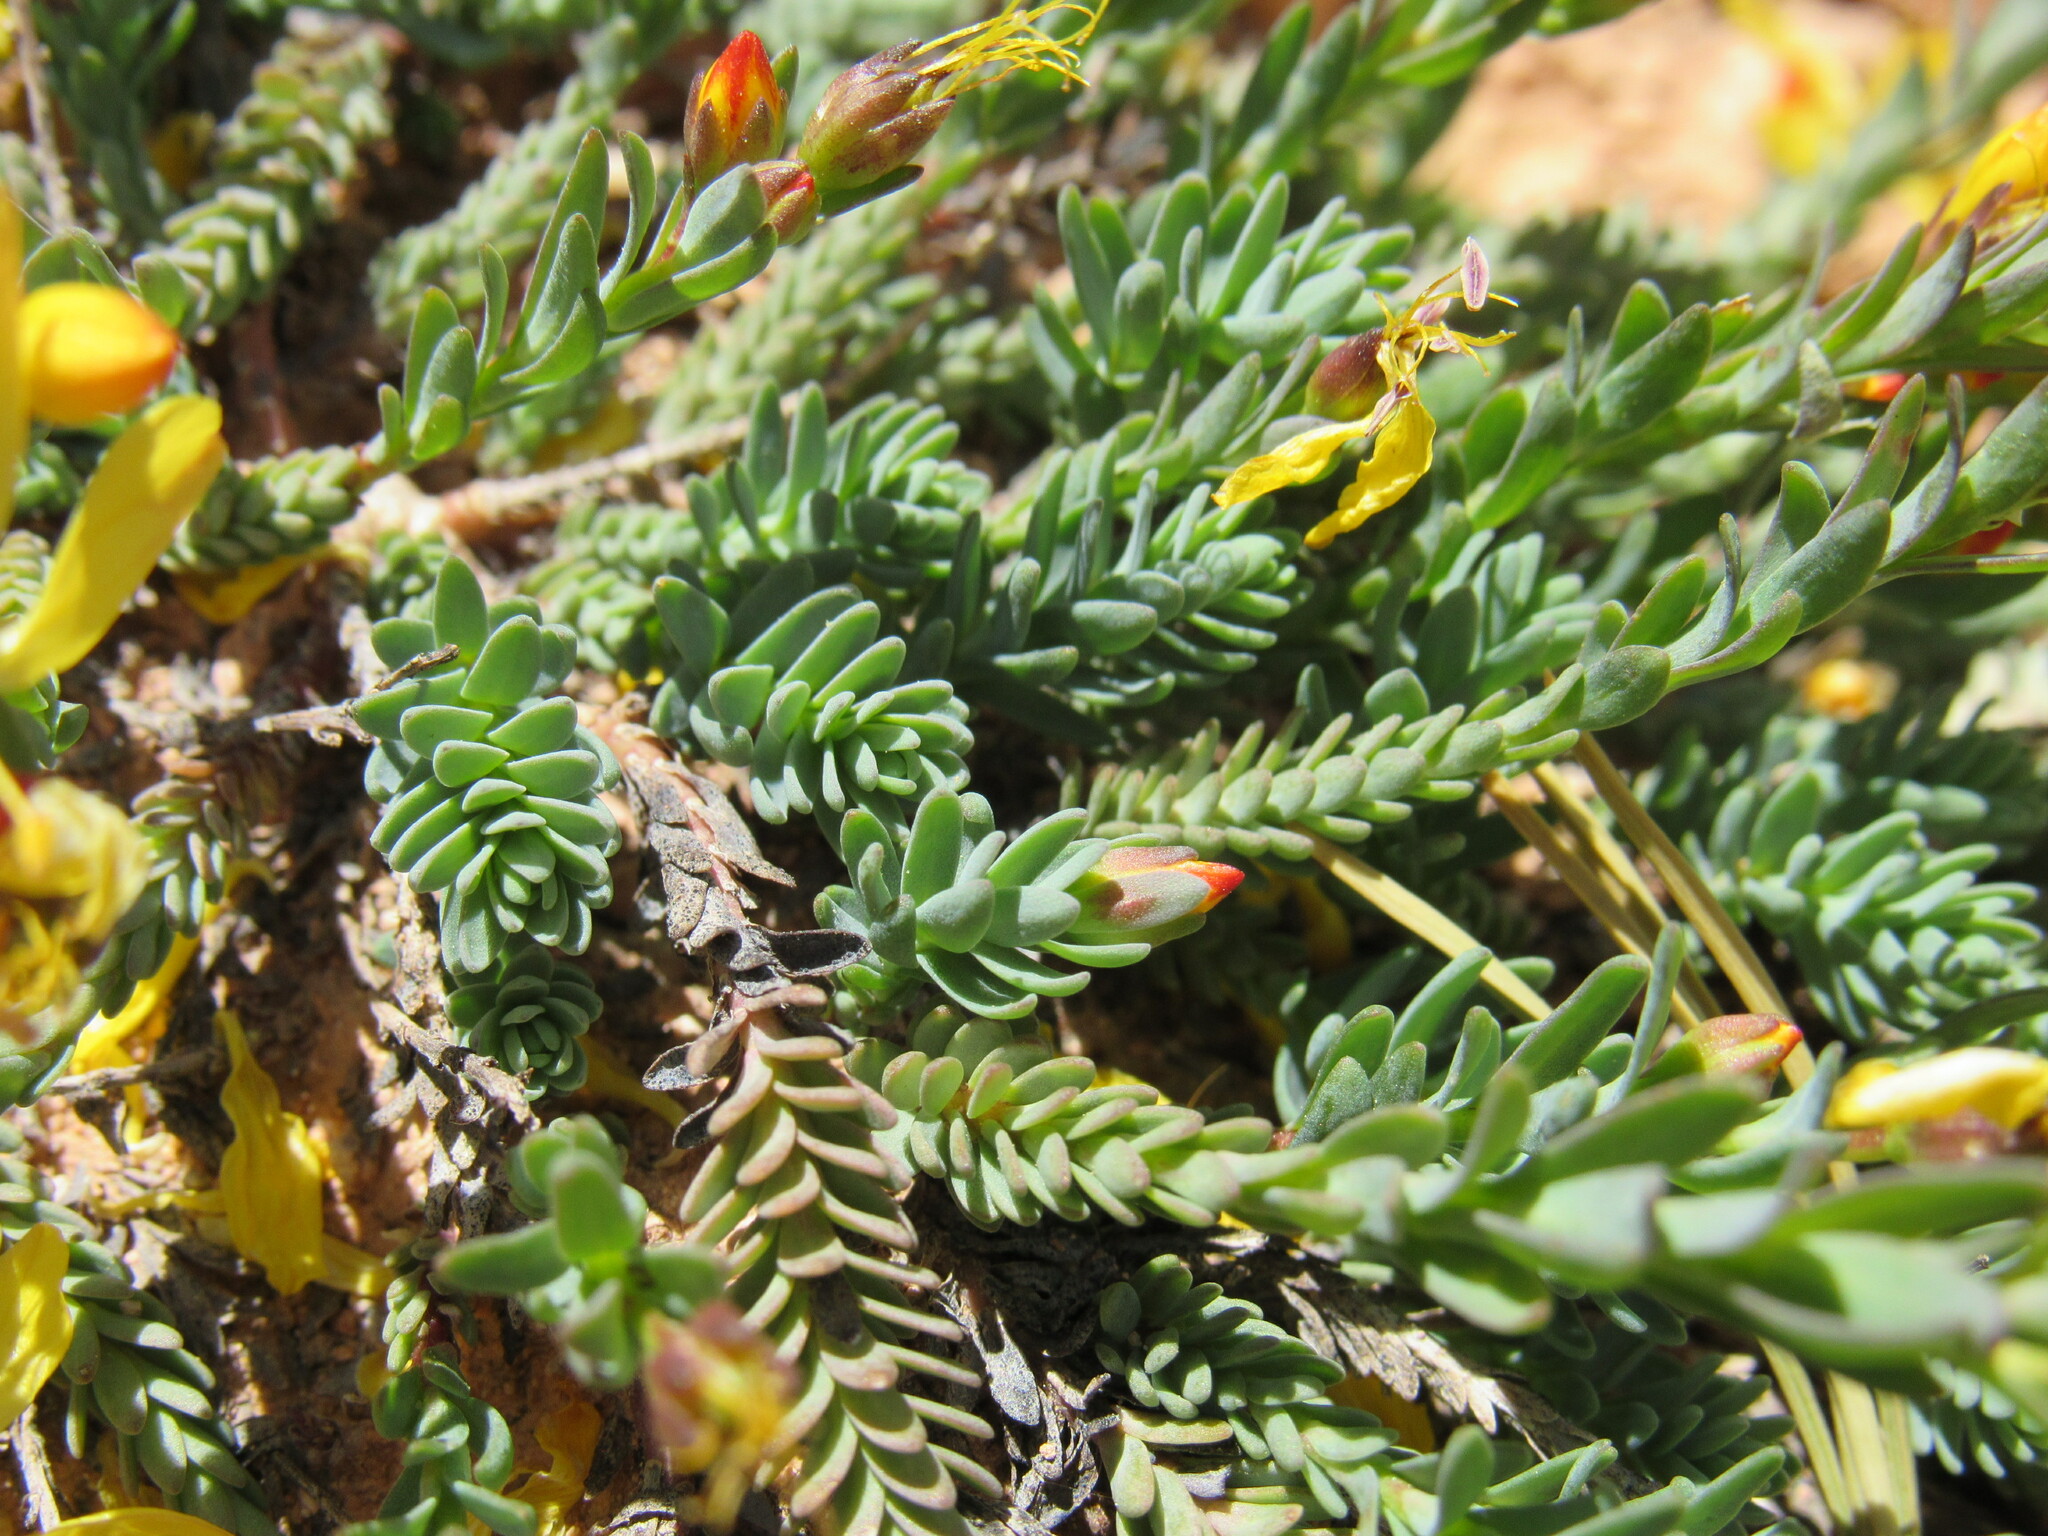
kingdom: Plantae
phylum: Tracheophyta
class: Magnoliopsida
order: Malpighiales
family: Linaceae
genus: Linum
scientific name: Linum kingii
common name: King's yellow flax
